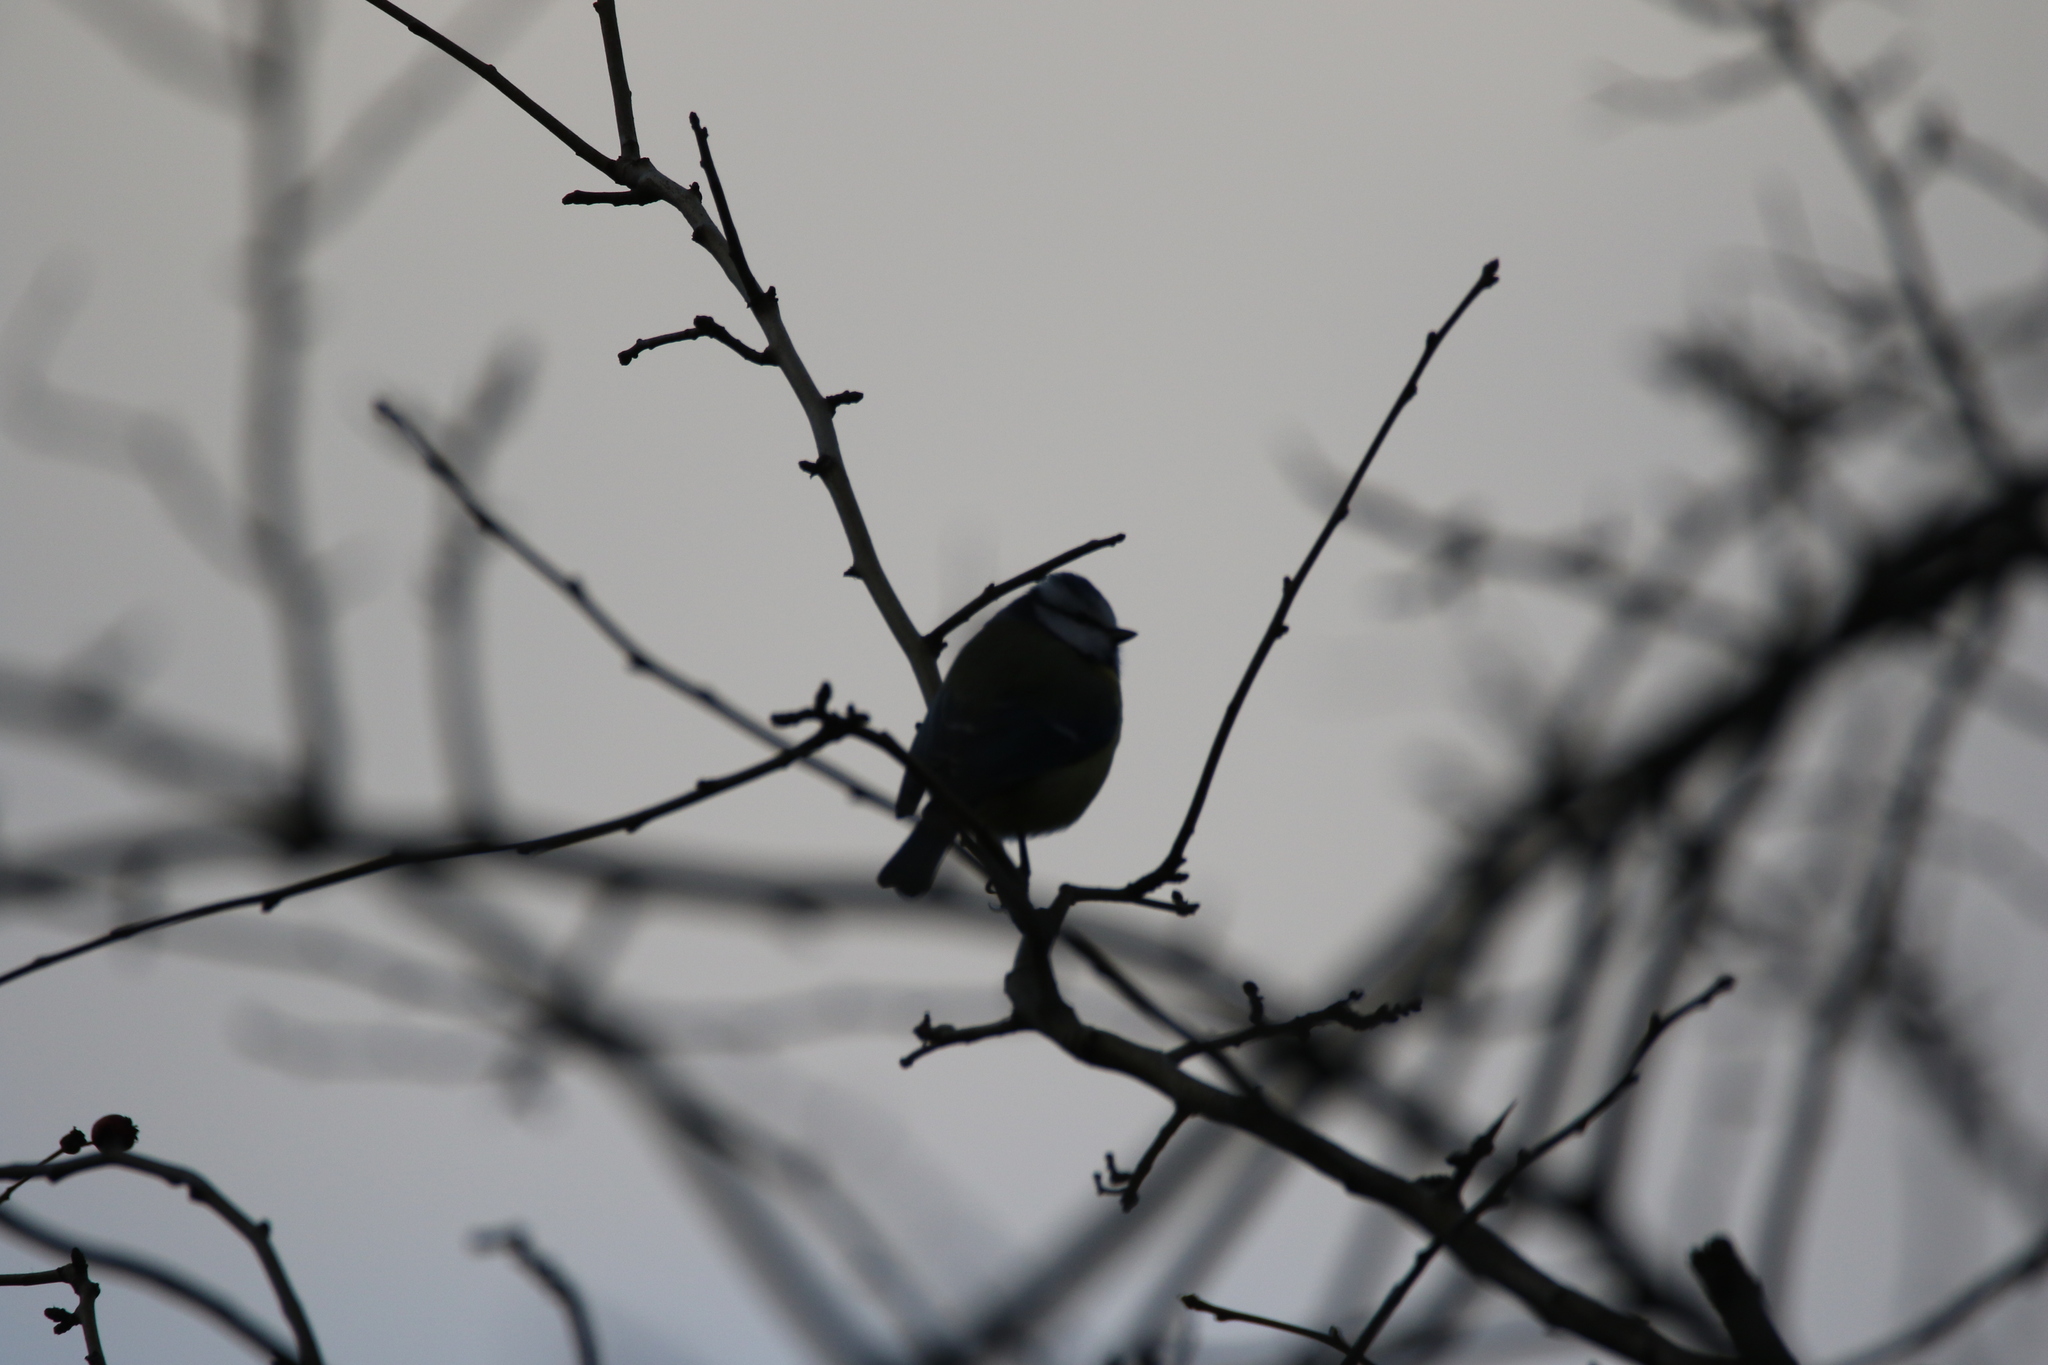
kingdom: Animalia
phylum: Chordata
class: Aves
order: Passeriformes
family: Paridae
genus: Cyanistes
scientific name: Cyanistes caeruleus
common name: Eurasian blue tit
